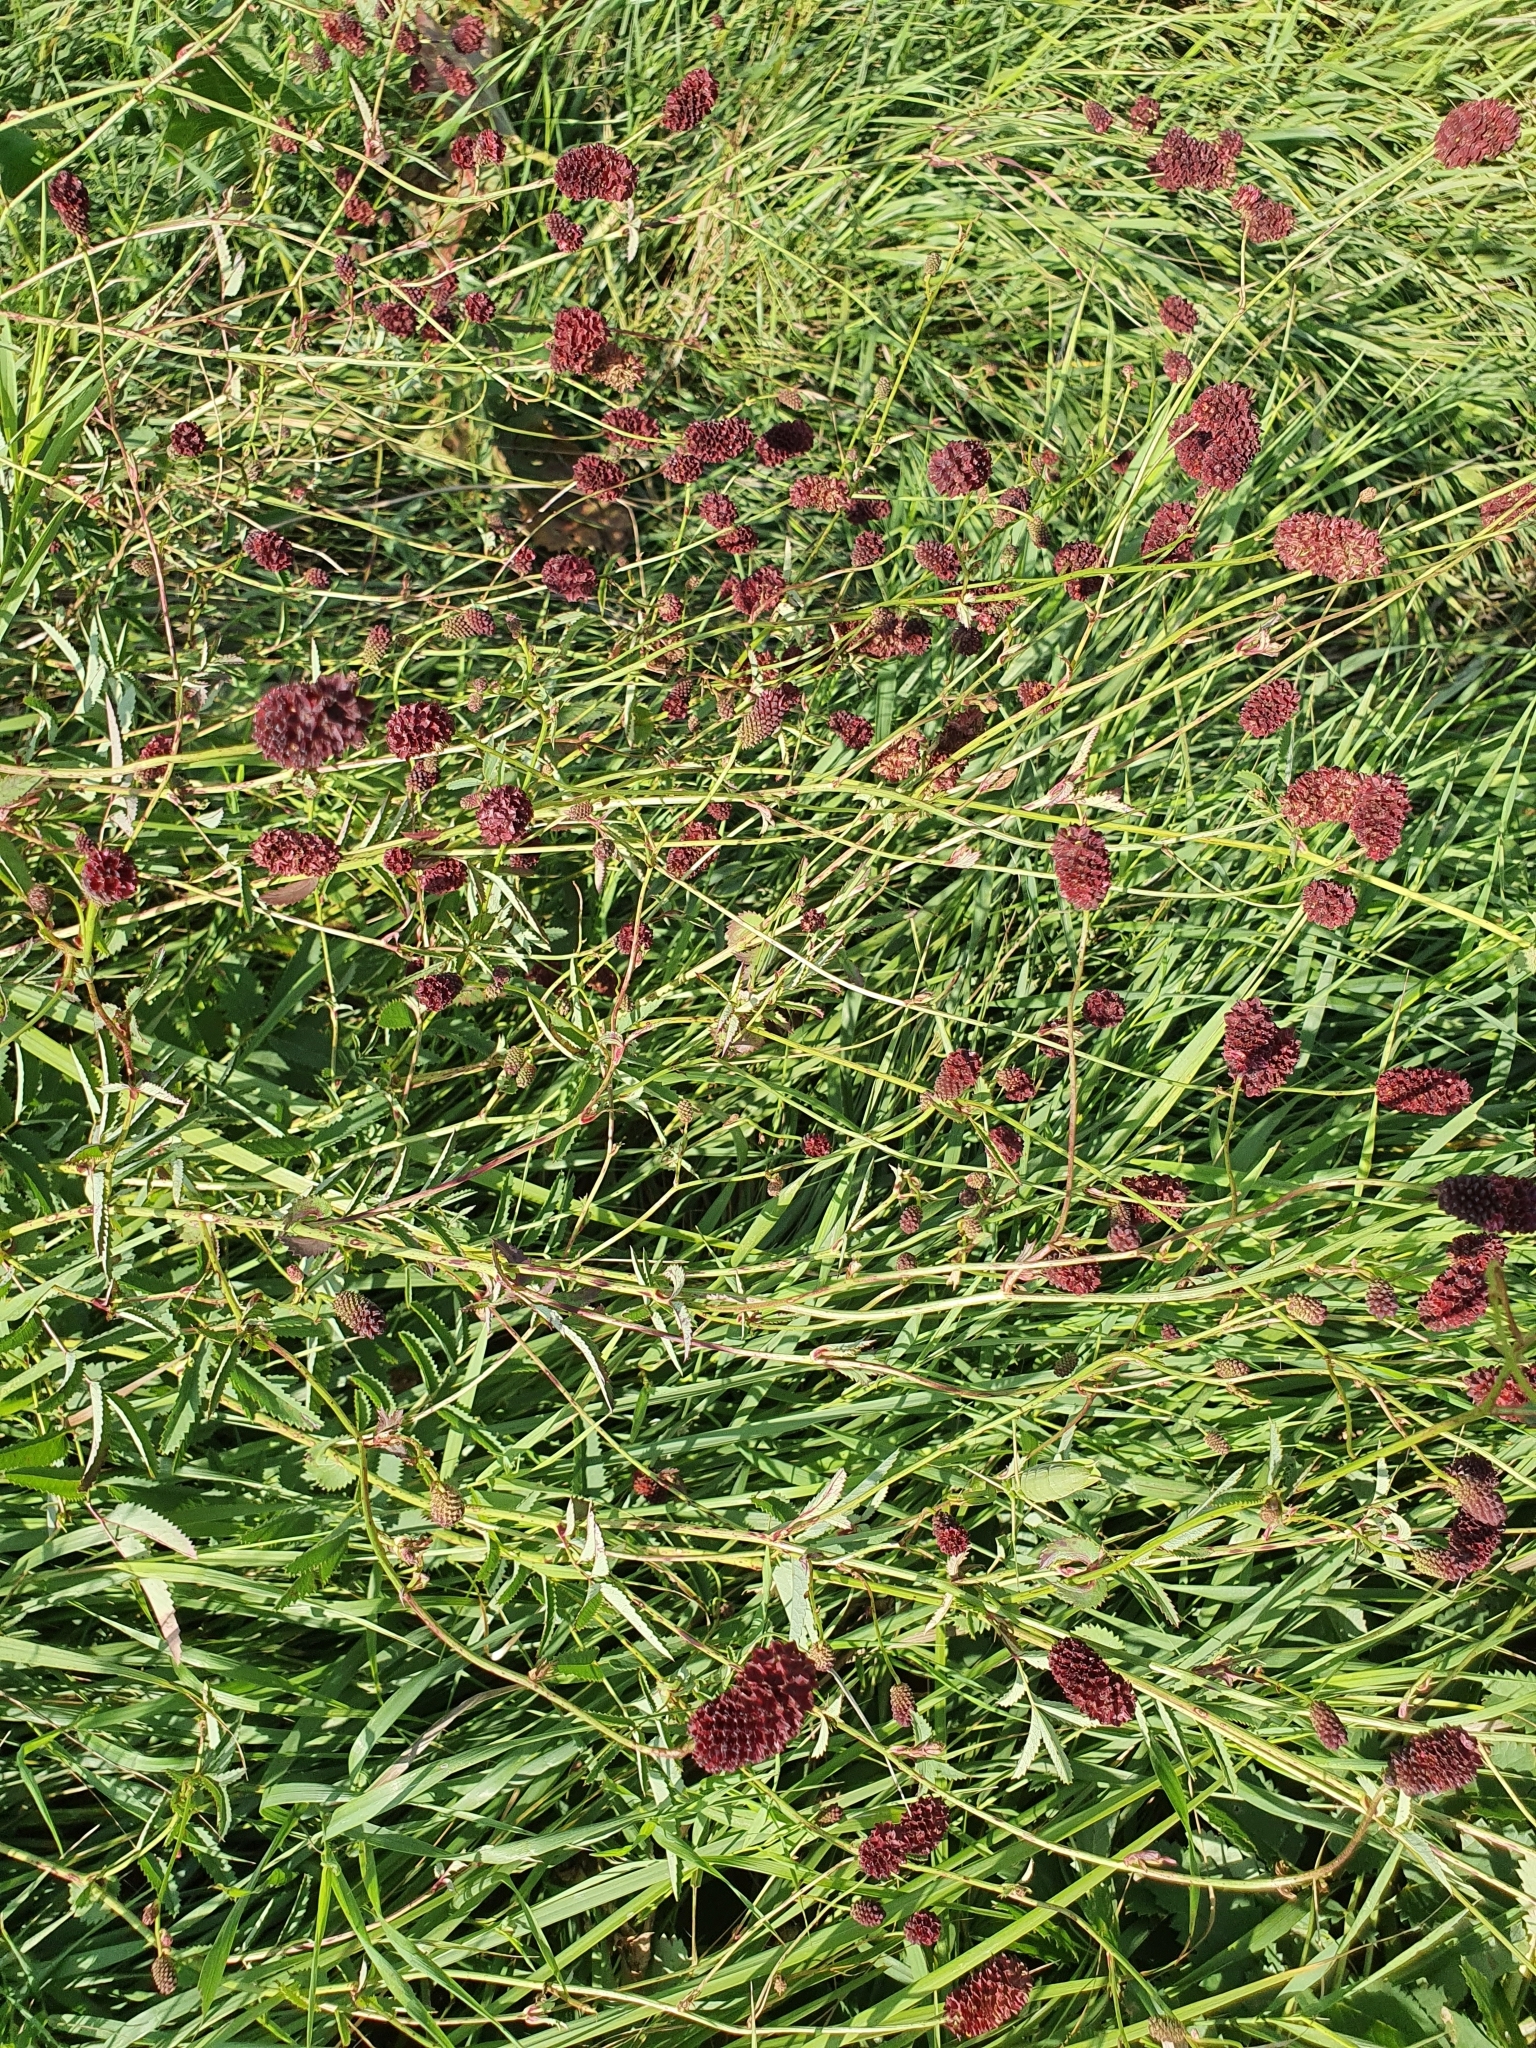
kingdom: Plantae
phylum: Tracheophyta
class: Magnoliopsida
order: Rosales
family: Rosaceae
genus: Sanguisorba
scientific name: Sanguisorba officinalis
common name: Great burnet
